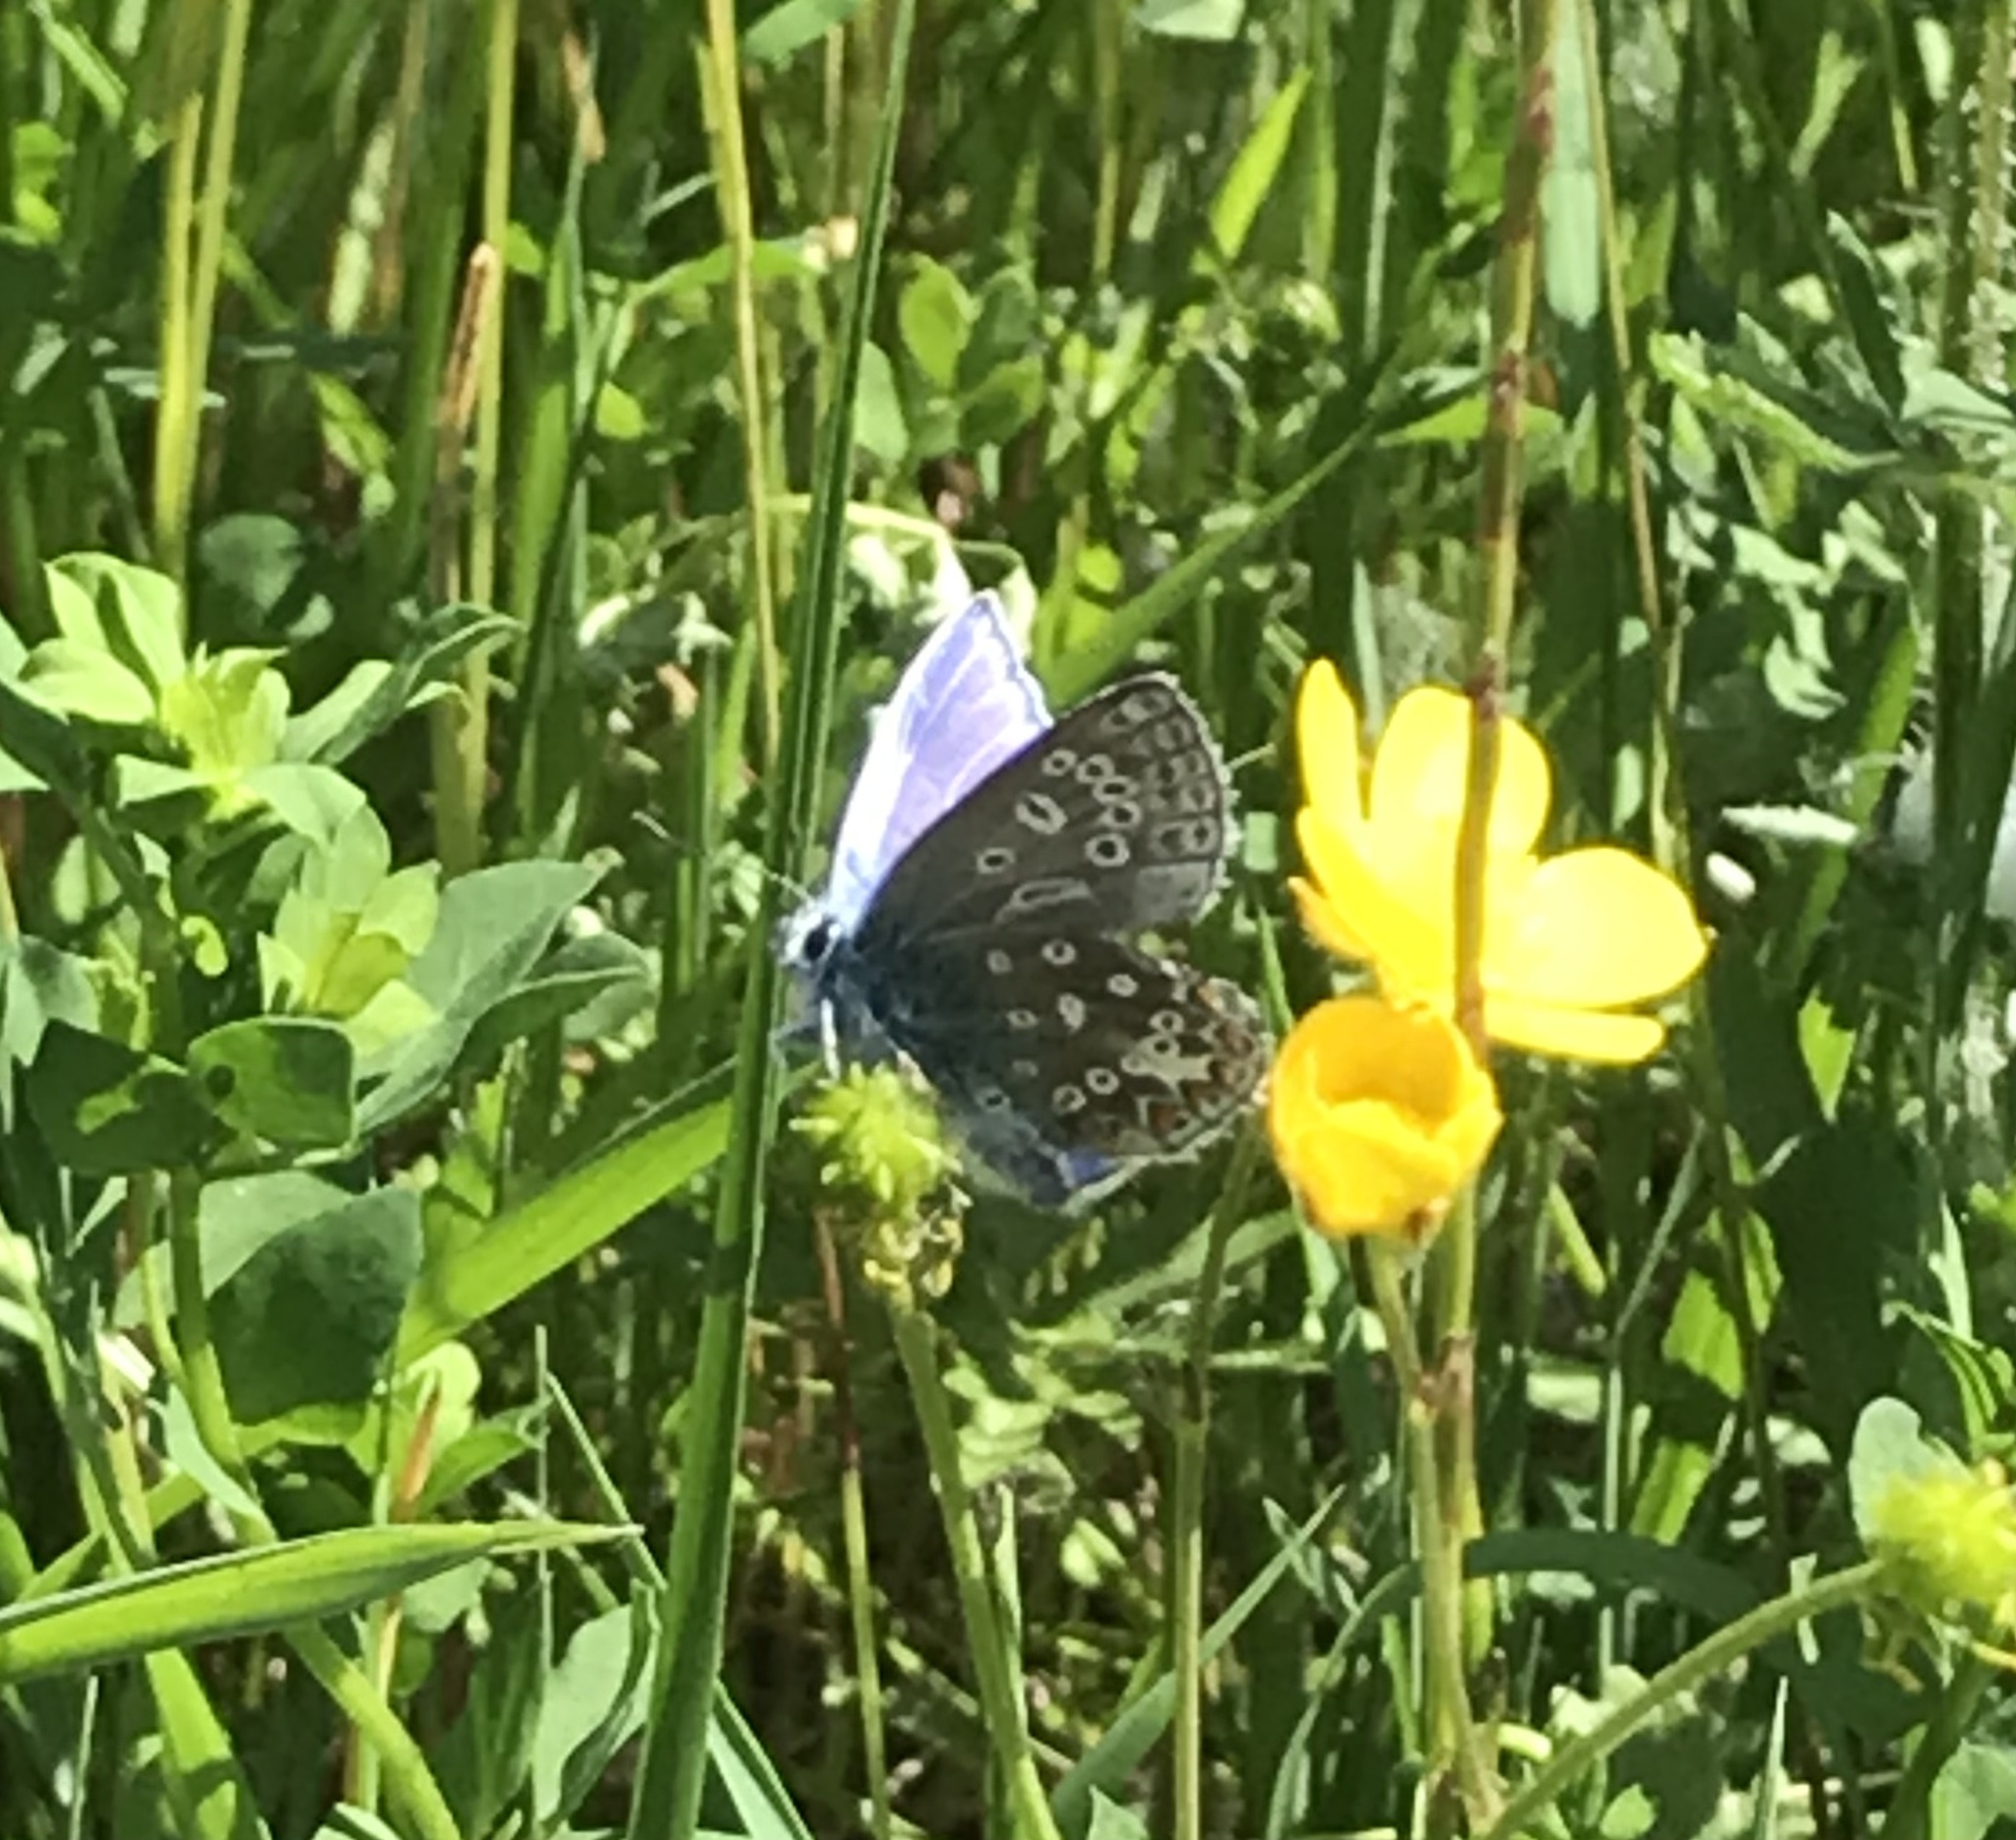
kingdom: Animalia
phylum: Arthropoda
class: Insecta
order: Lepidoptera
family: Lycaenidae
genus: Polyommatus
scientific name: Polyommatus icarus
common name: Common blue
